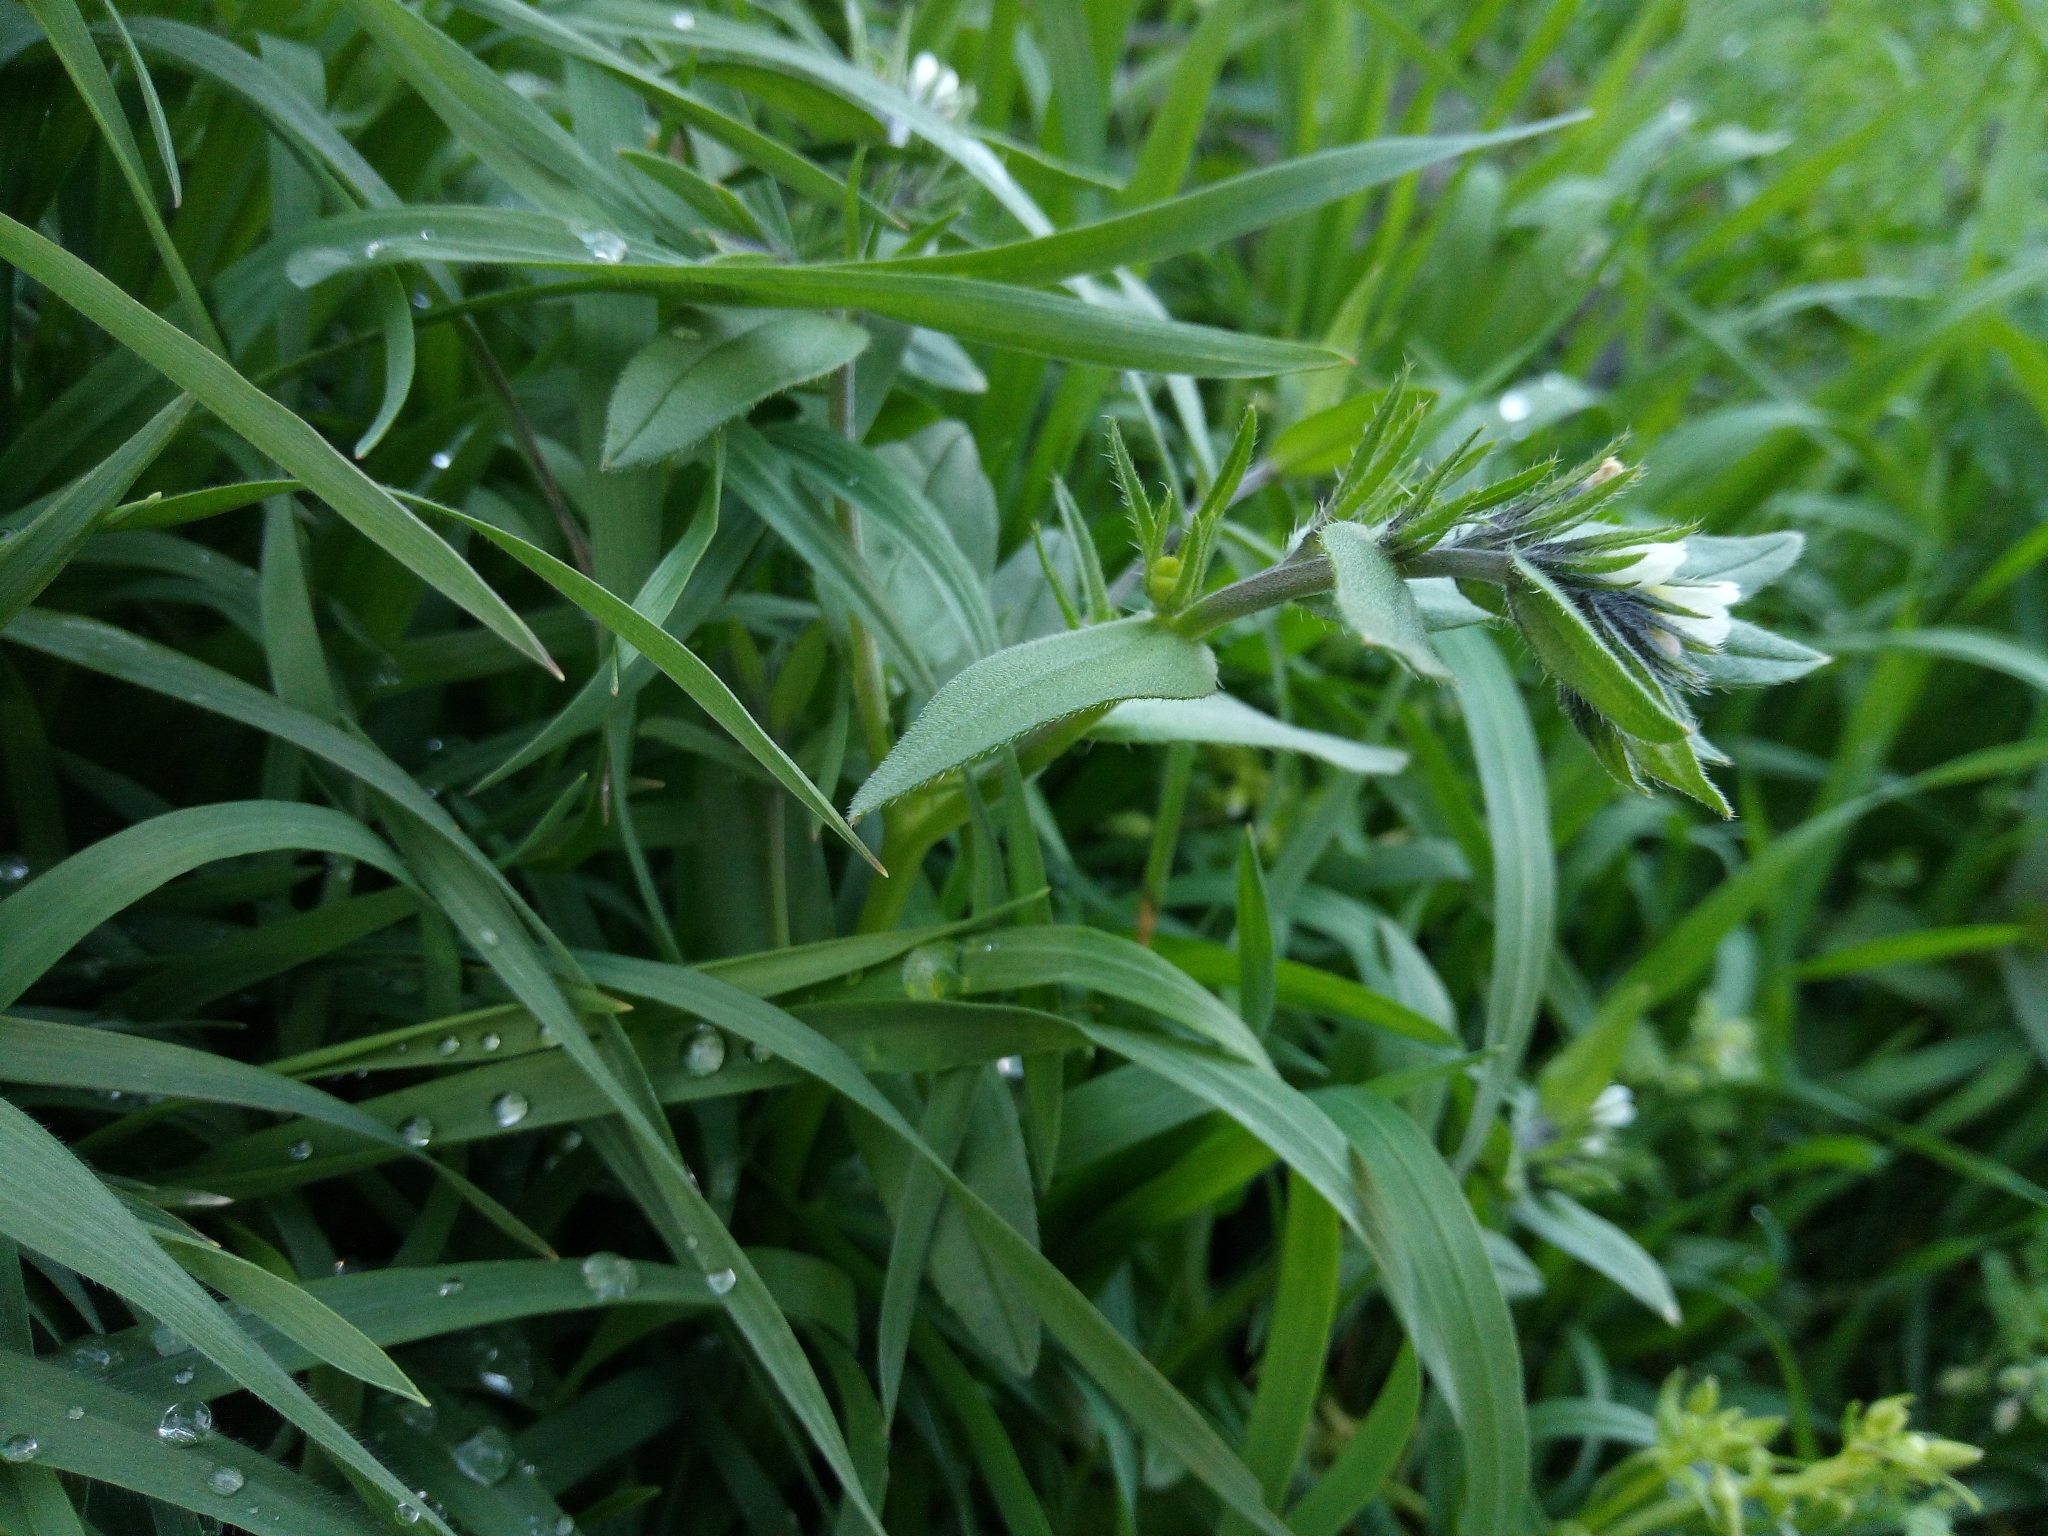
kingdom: Plantae
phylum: Tracheophyta
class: Magnoliopsida
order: Boraginales
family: Boraginaceae
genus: Buglossoides
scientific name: Buglossoides arvensis
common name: Corn gromwell
